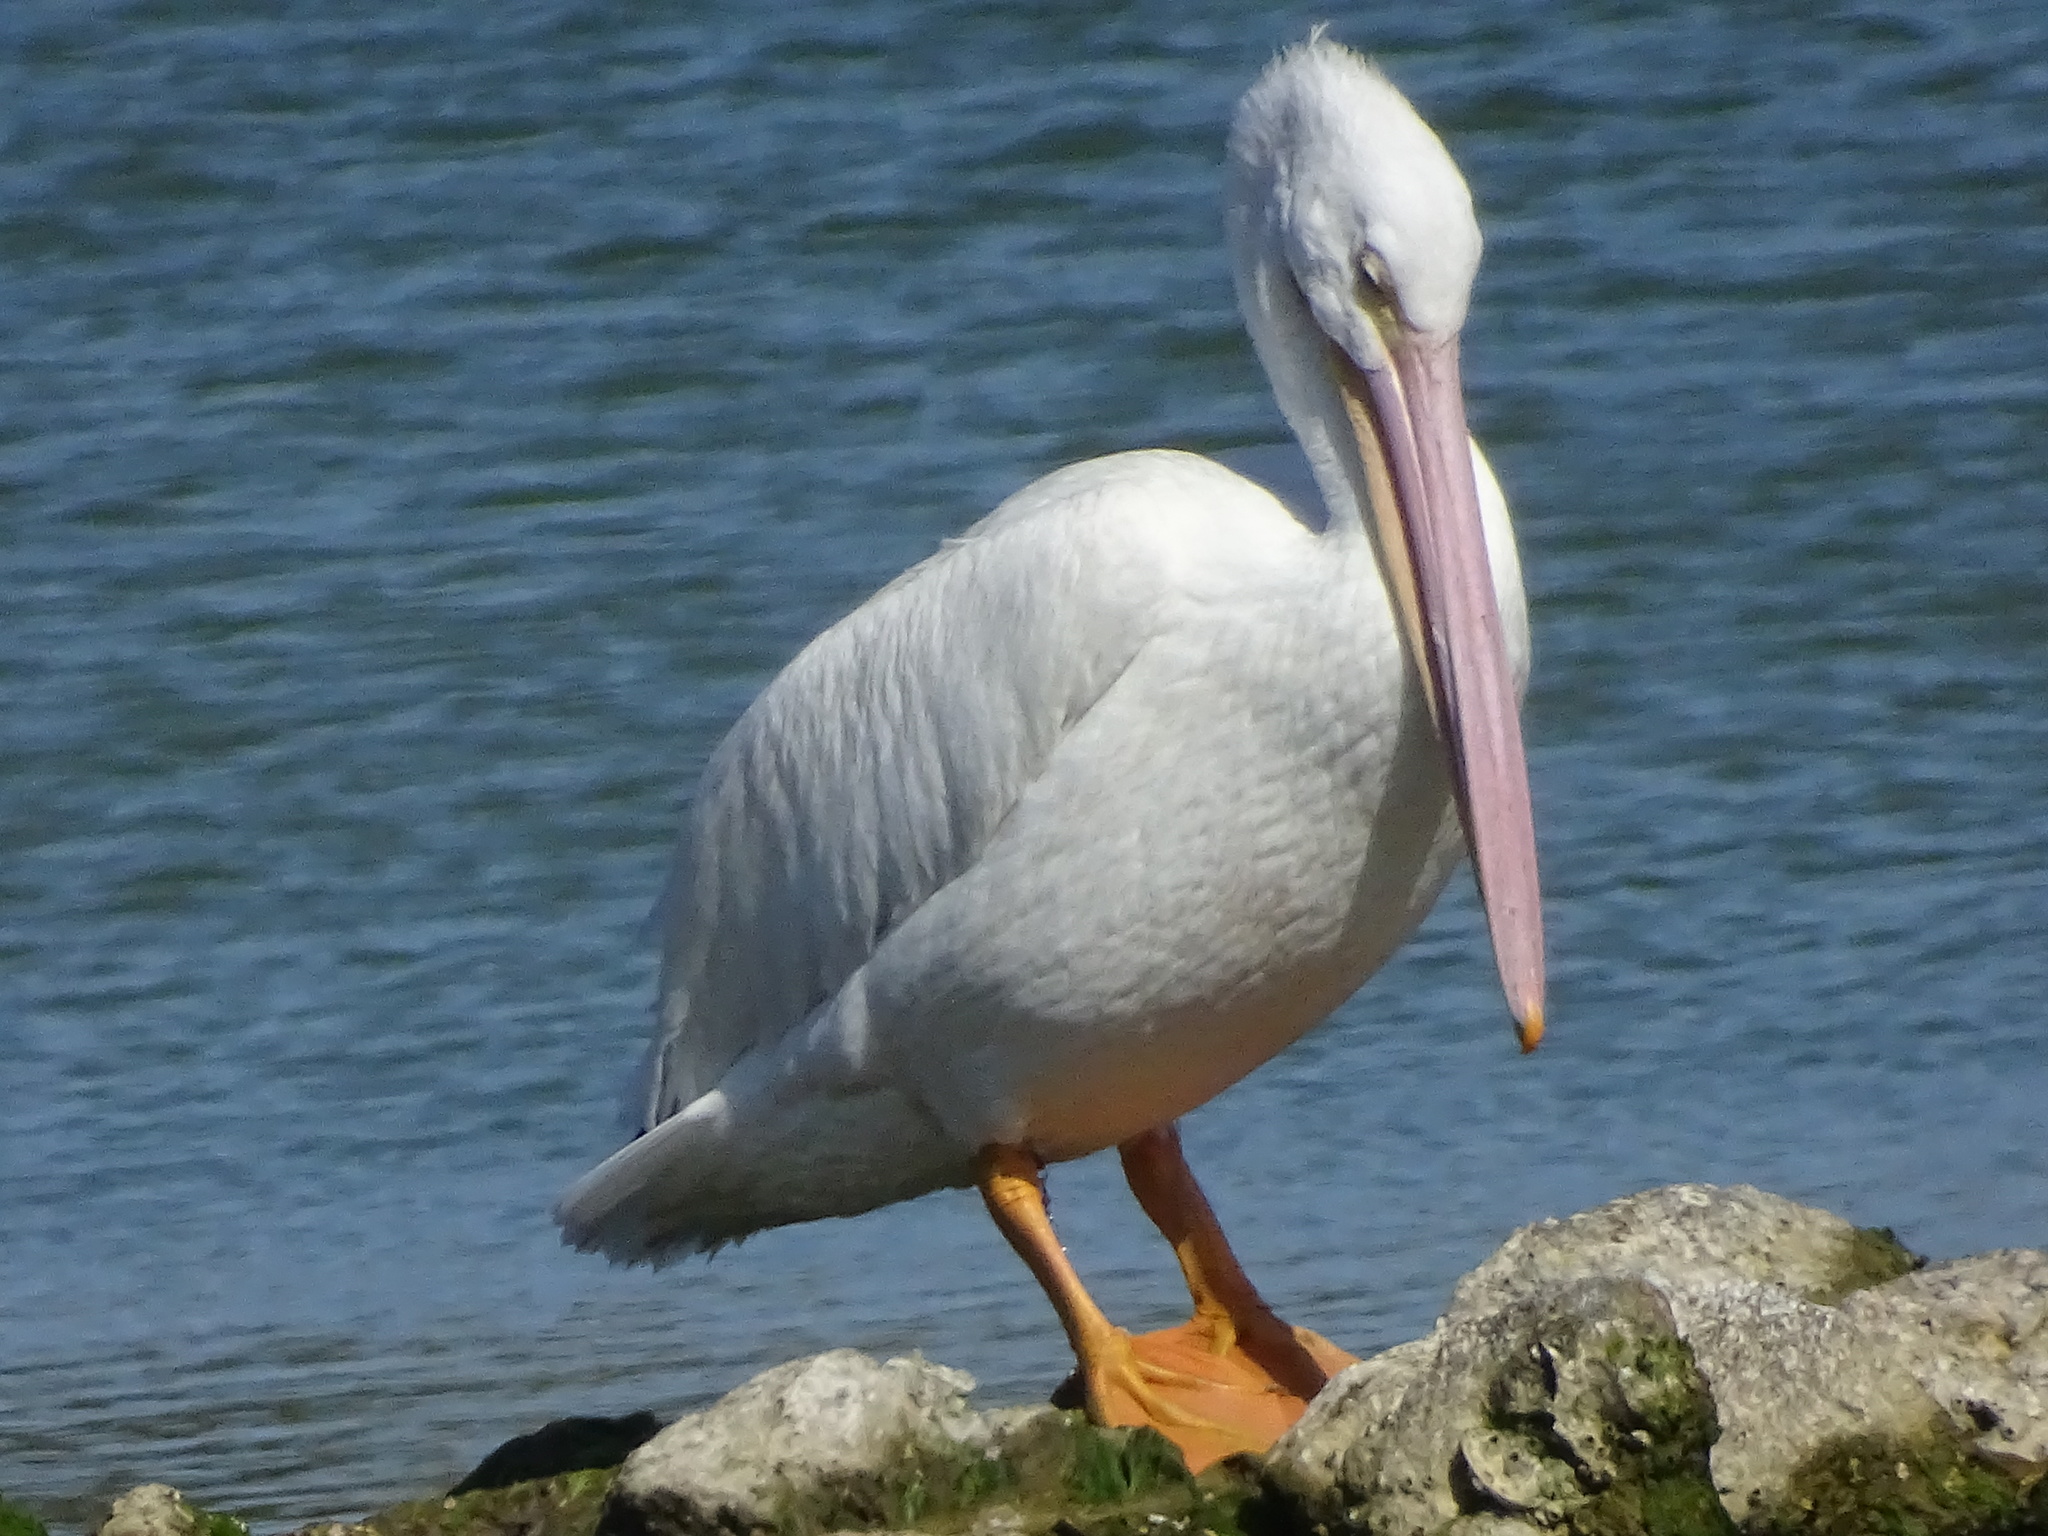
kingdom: Animalia
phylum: Chordata
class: Aves
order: Pelecaniformes
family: Pelecanidae
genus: Pelecanus
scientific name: Pelecanus erythrorhynchos
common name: American white pelican
